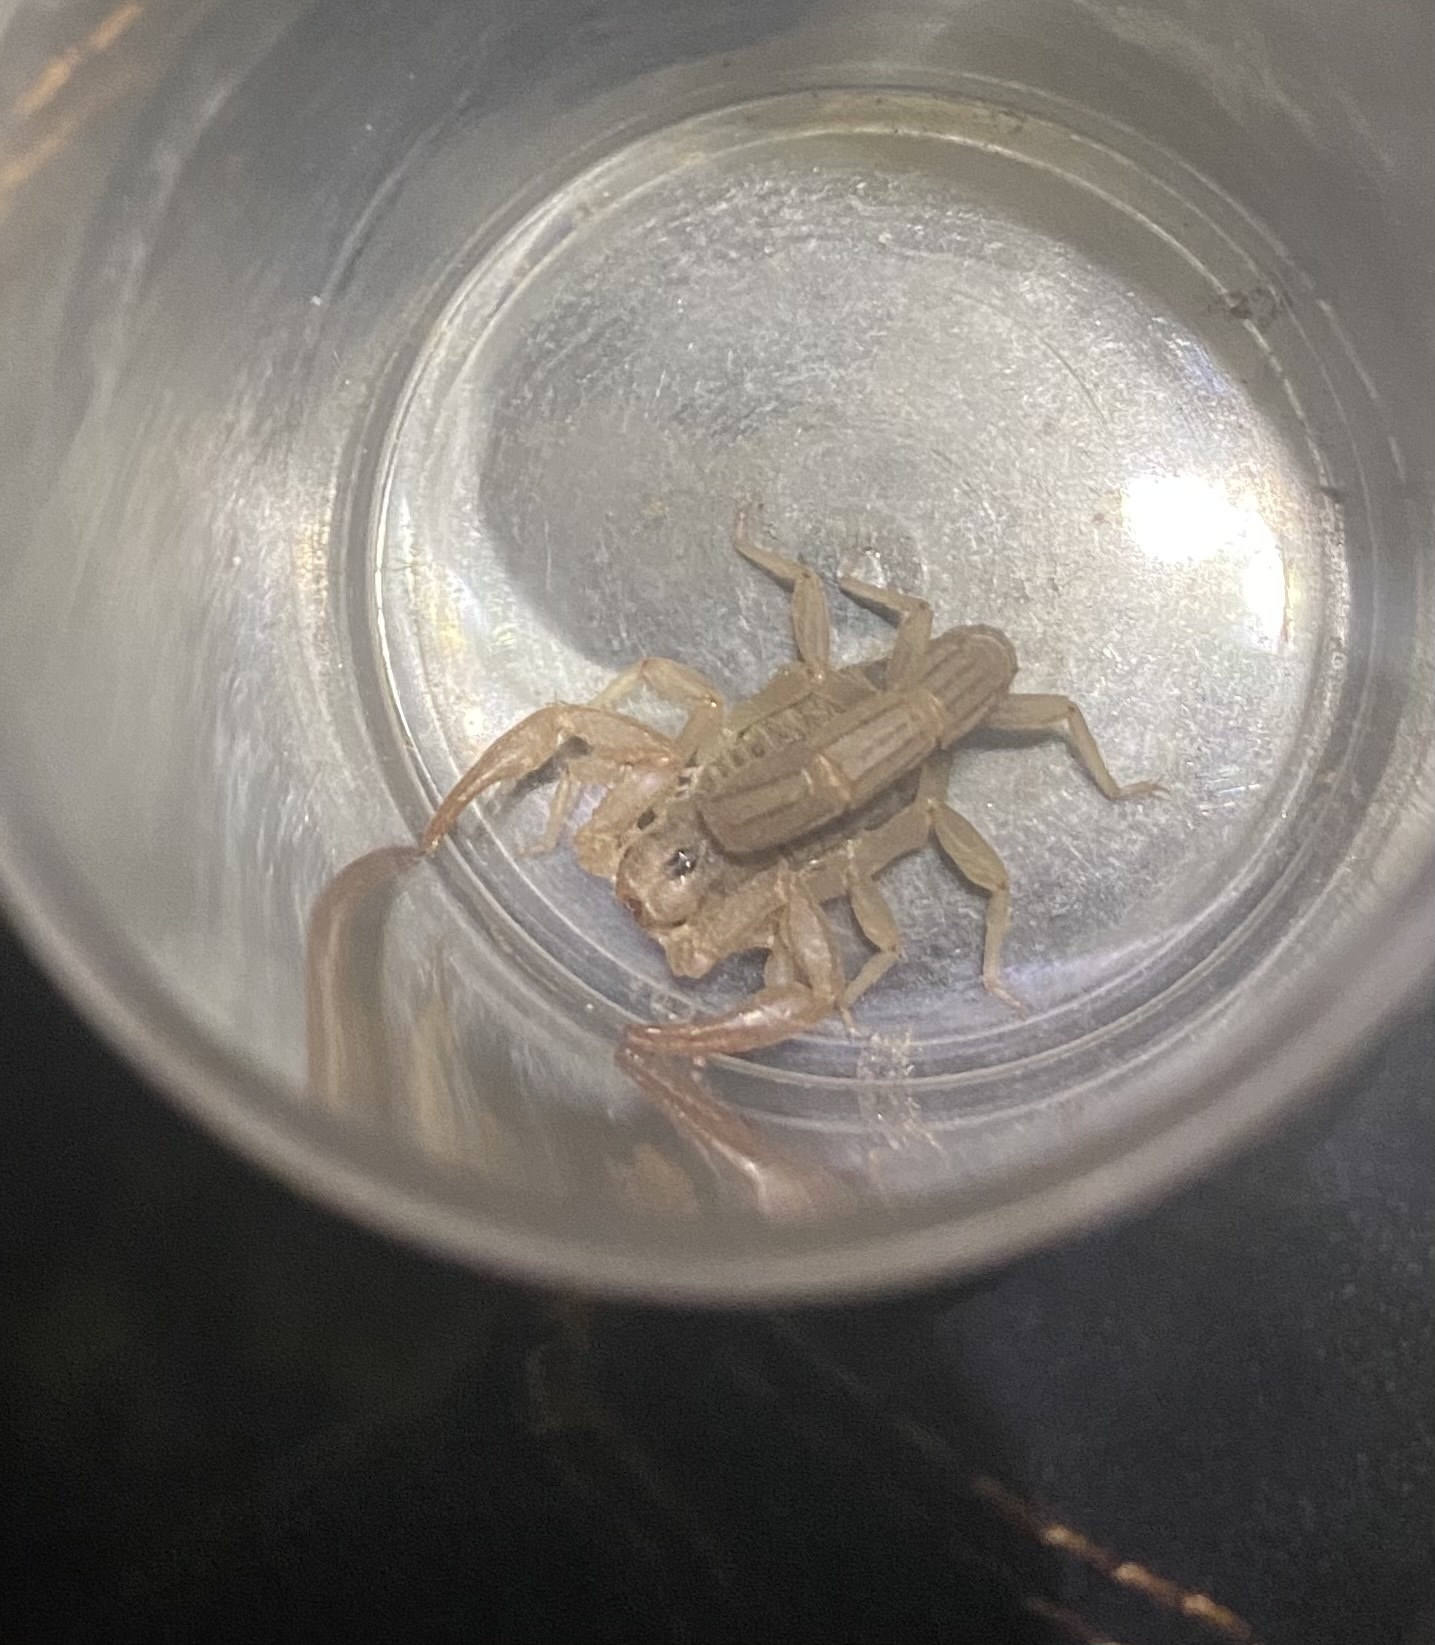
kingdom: Animalia
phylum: Arthropoda
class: Arachnida
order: Scorpiones
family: Vaejovidae
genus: Paravaejovis
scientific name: Paravaejovis spinigerus
